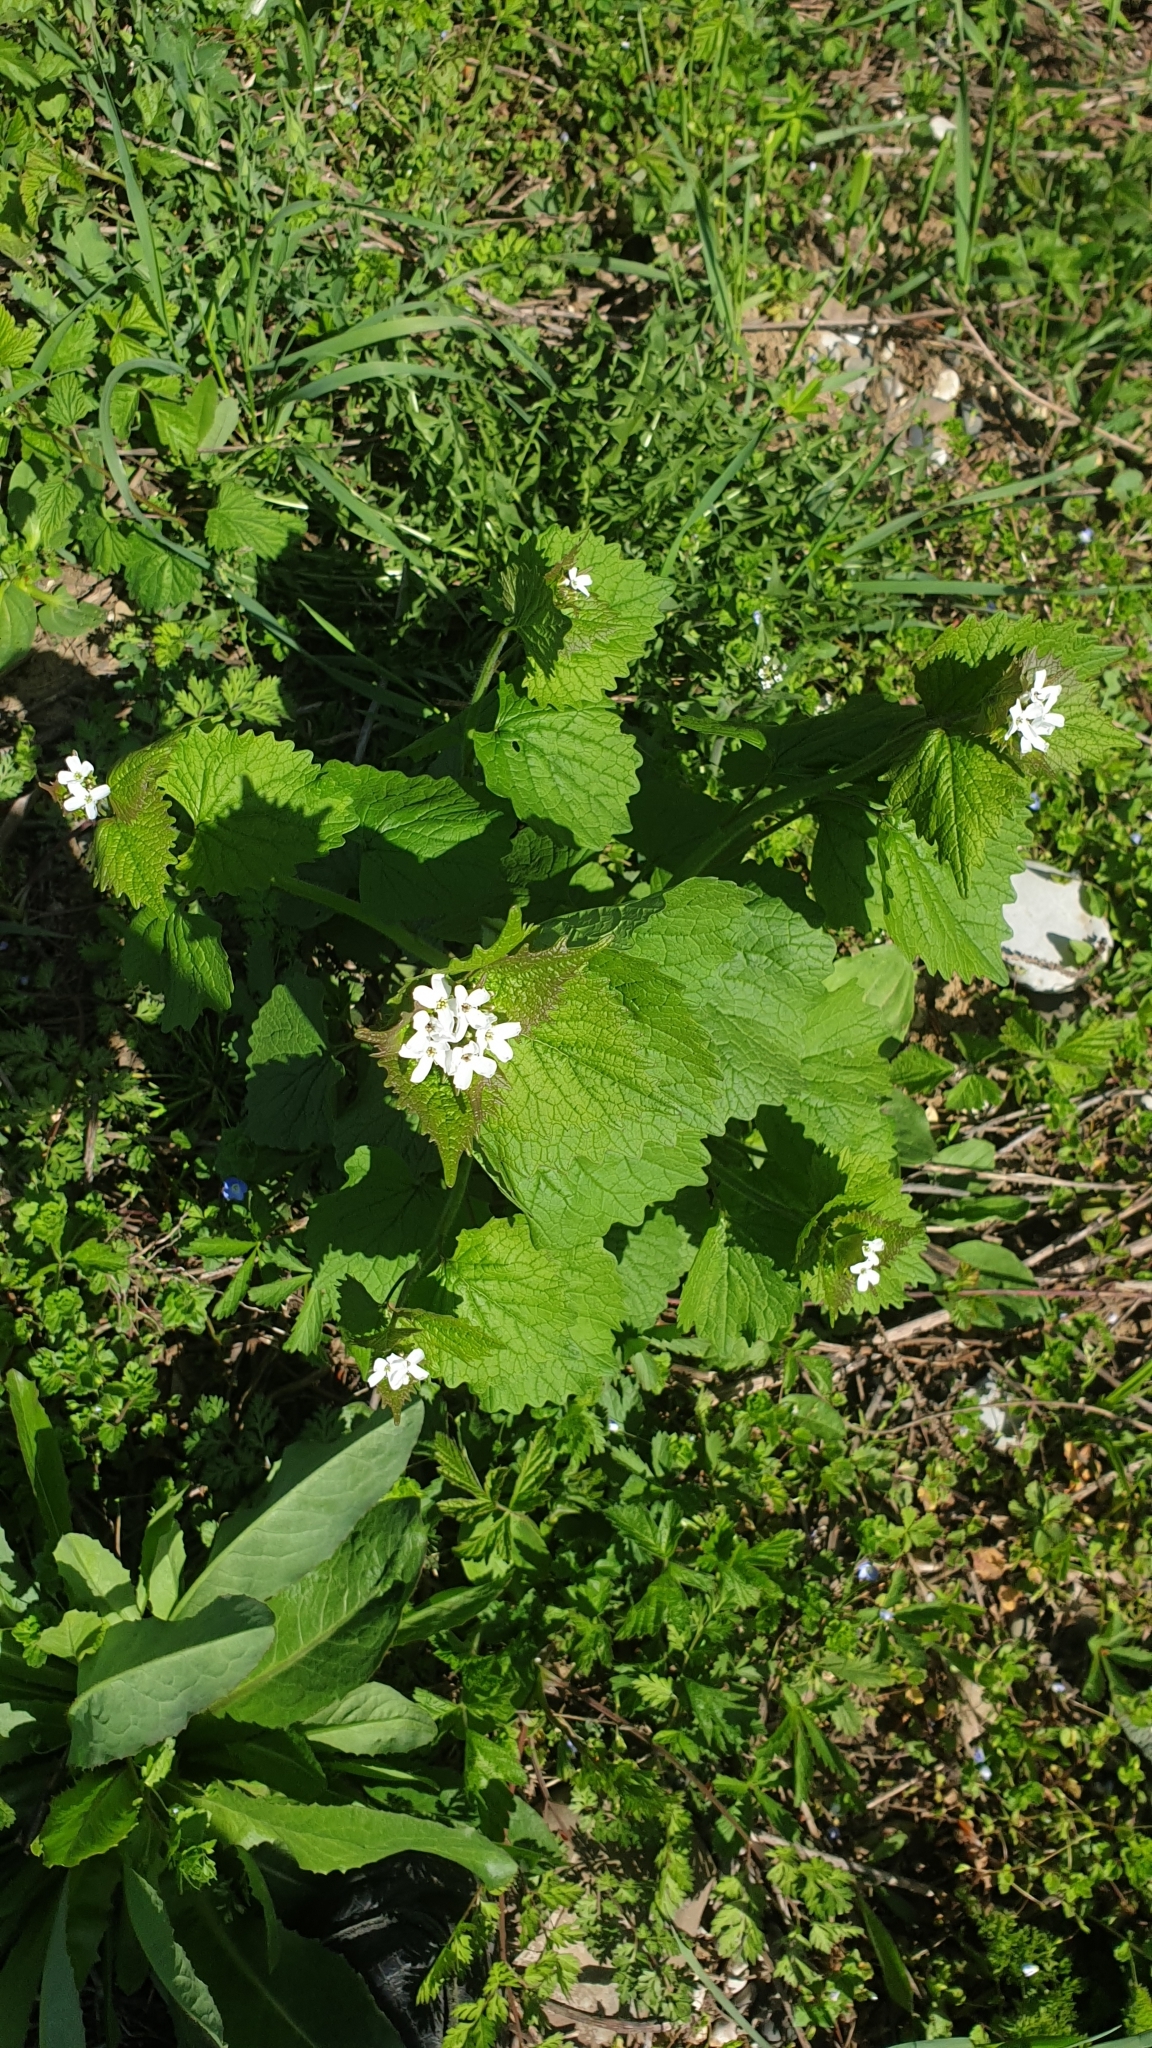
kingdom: Plantae
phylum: Tracheophyta
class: Magnoliopsida
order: Brassicales
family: Brassicaceae
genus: Alliaria
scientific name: Alliaria petiolata
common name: Garlic mustard
